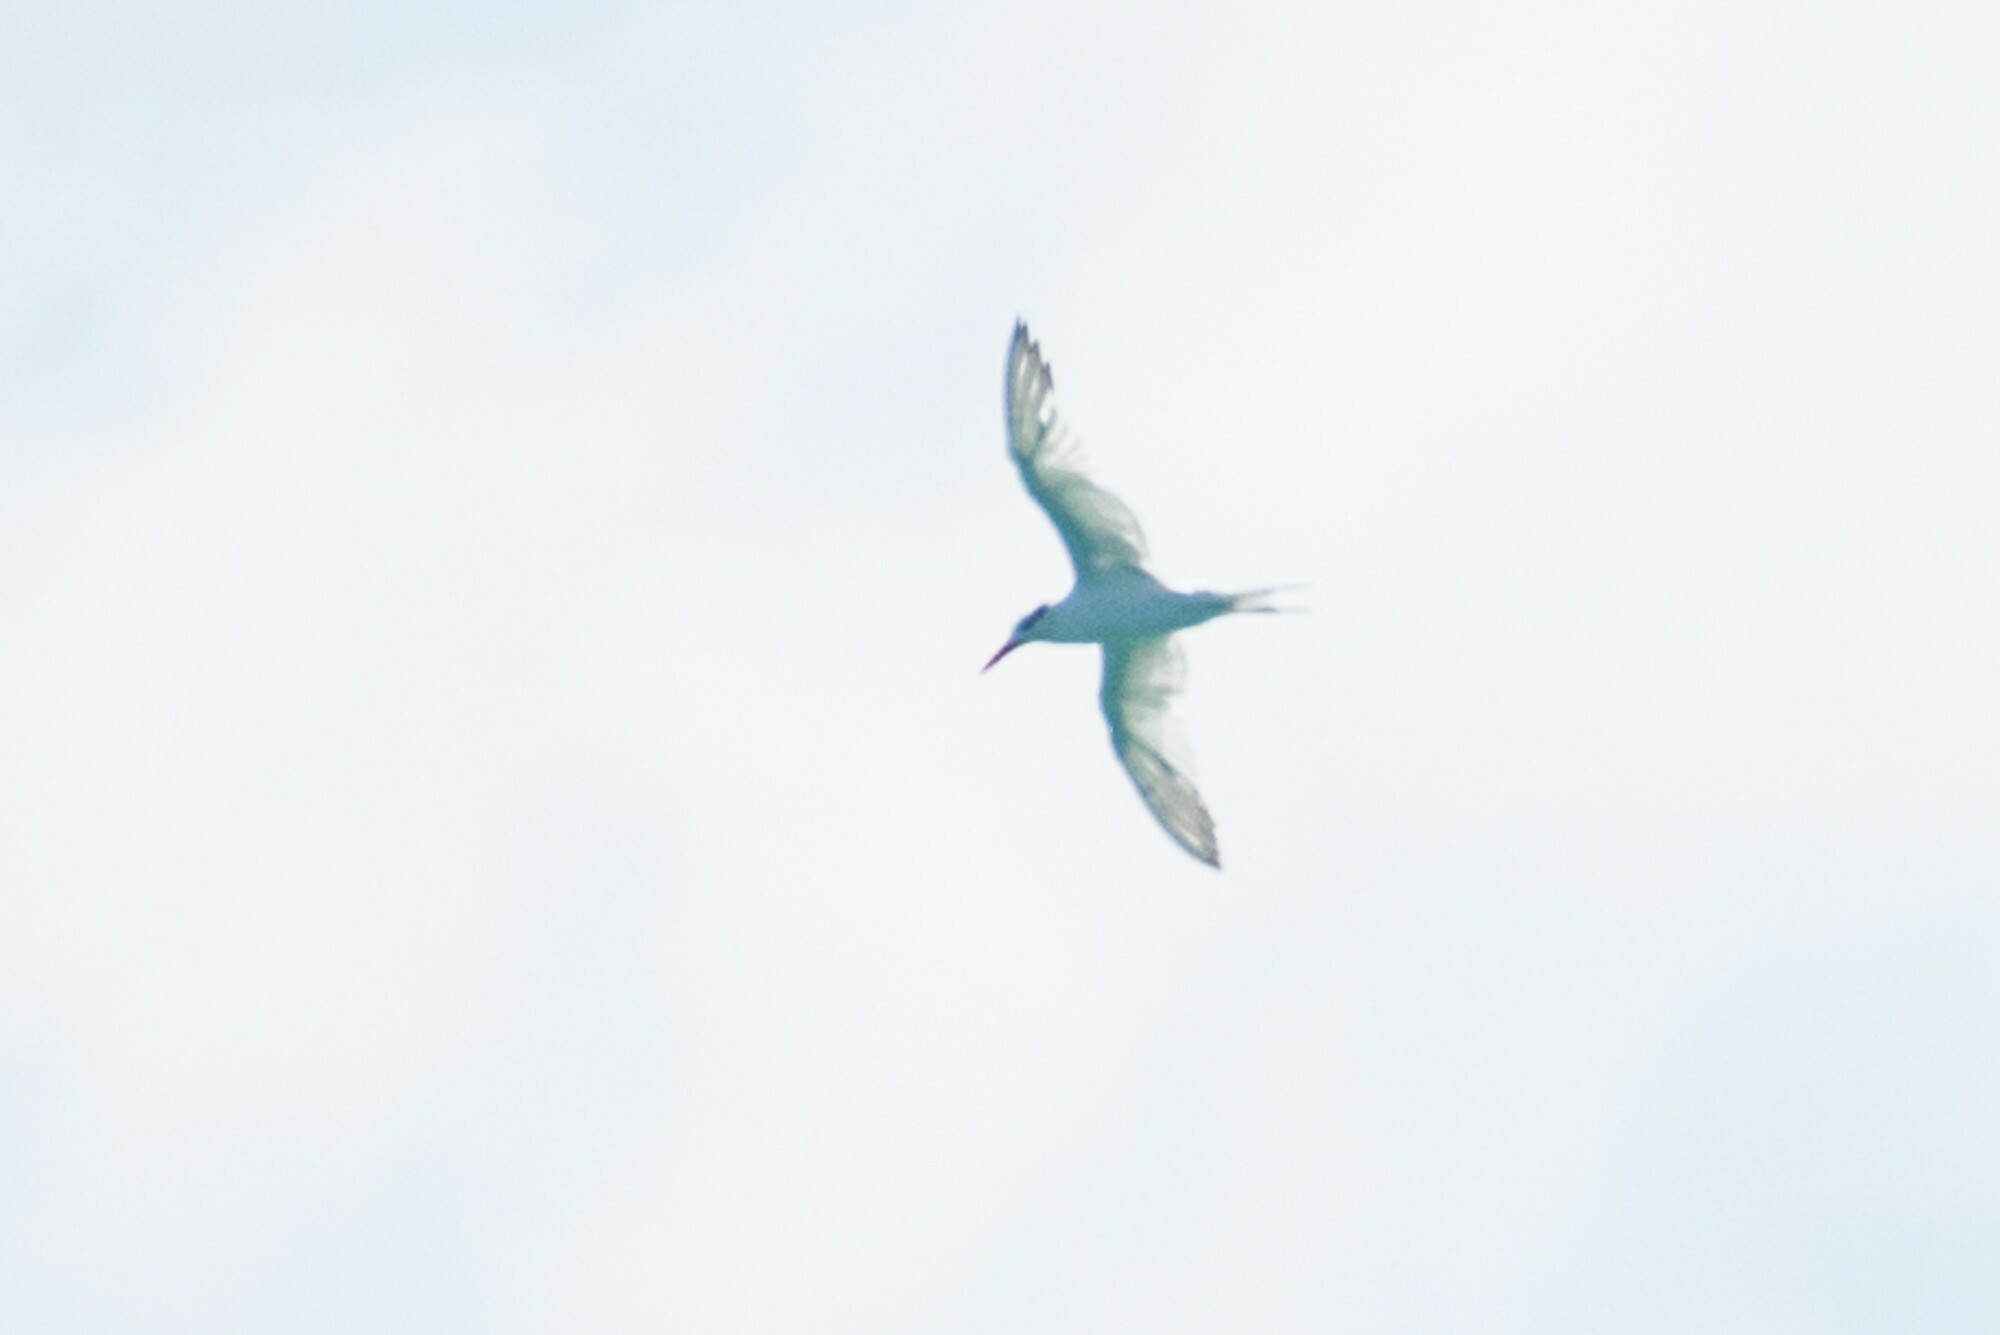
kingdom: Animalia
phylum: Chordata
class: Aves
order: Charadriiformes
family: Laridae
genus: Thalasseus
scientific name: Thalasseus elegans
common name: Elegant tern
